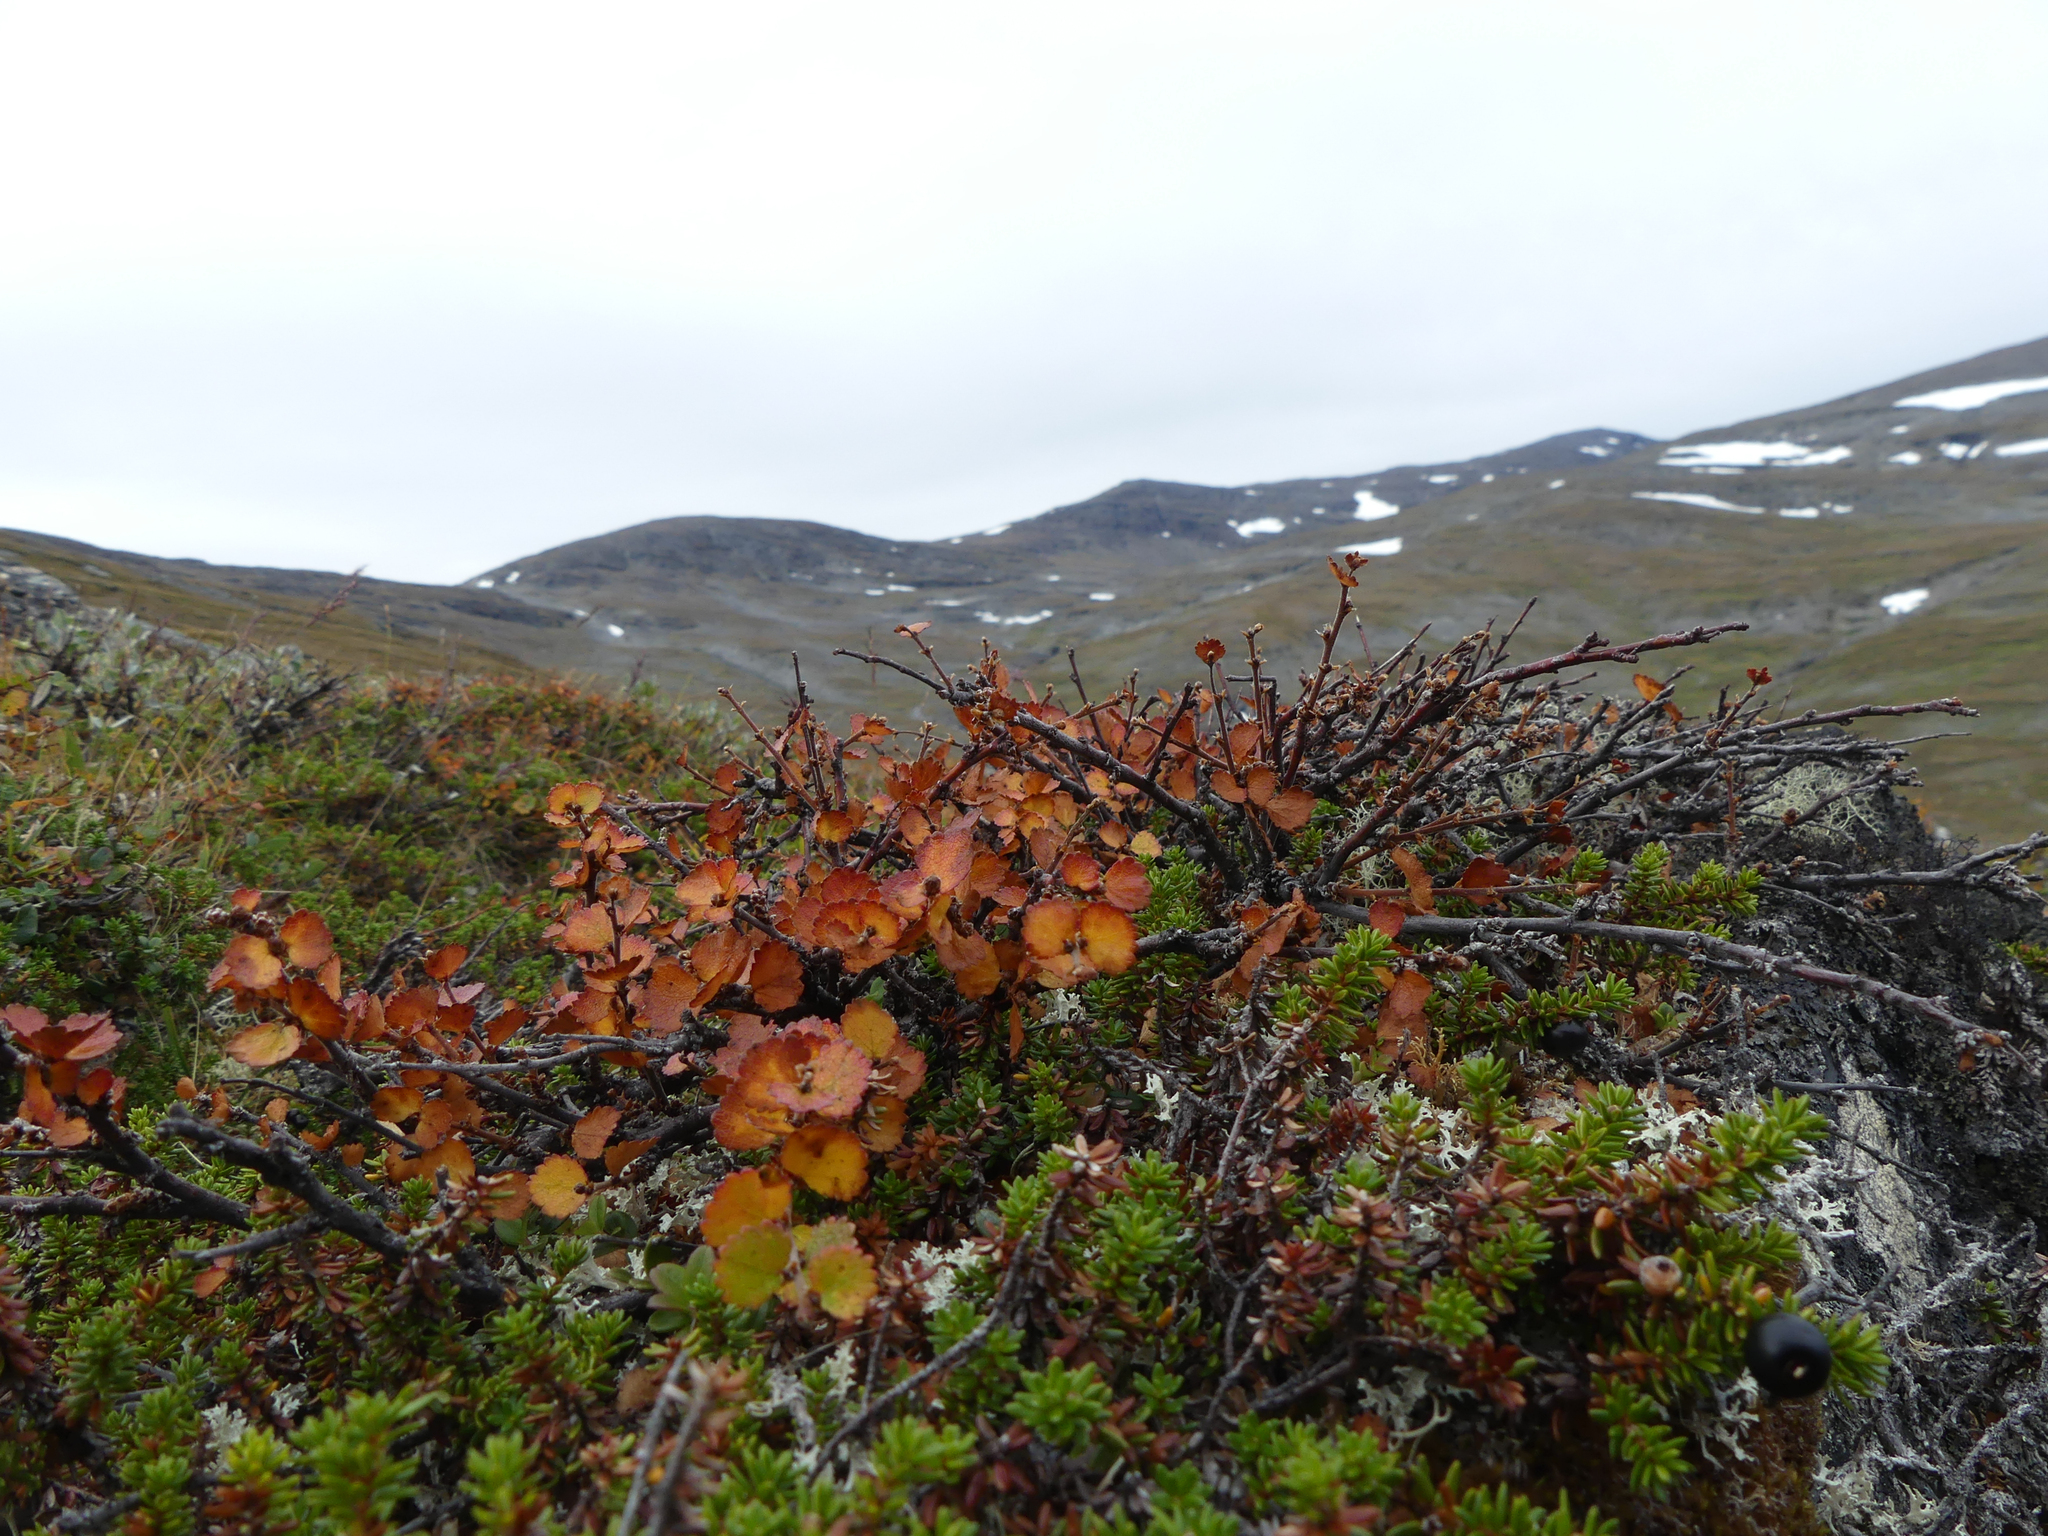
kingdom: Plantae
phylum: Tracheophyta
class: Magnoliopsida
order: Fagales
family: Betulaceae
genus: Betula
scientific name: Betula nana
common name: Arctic dwarf birch
